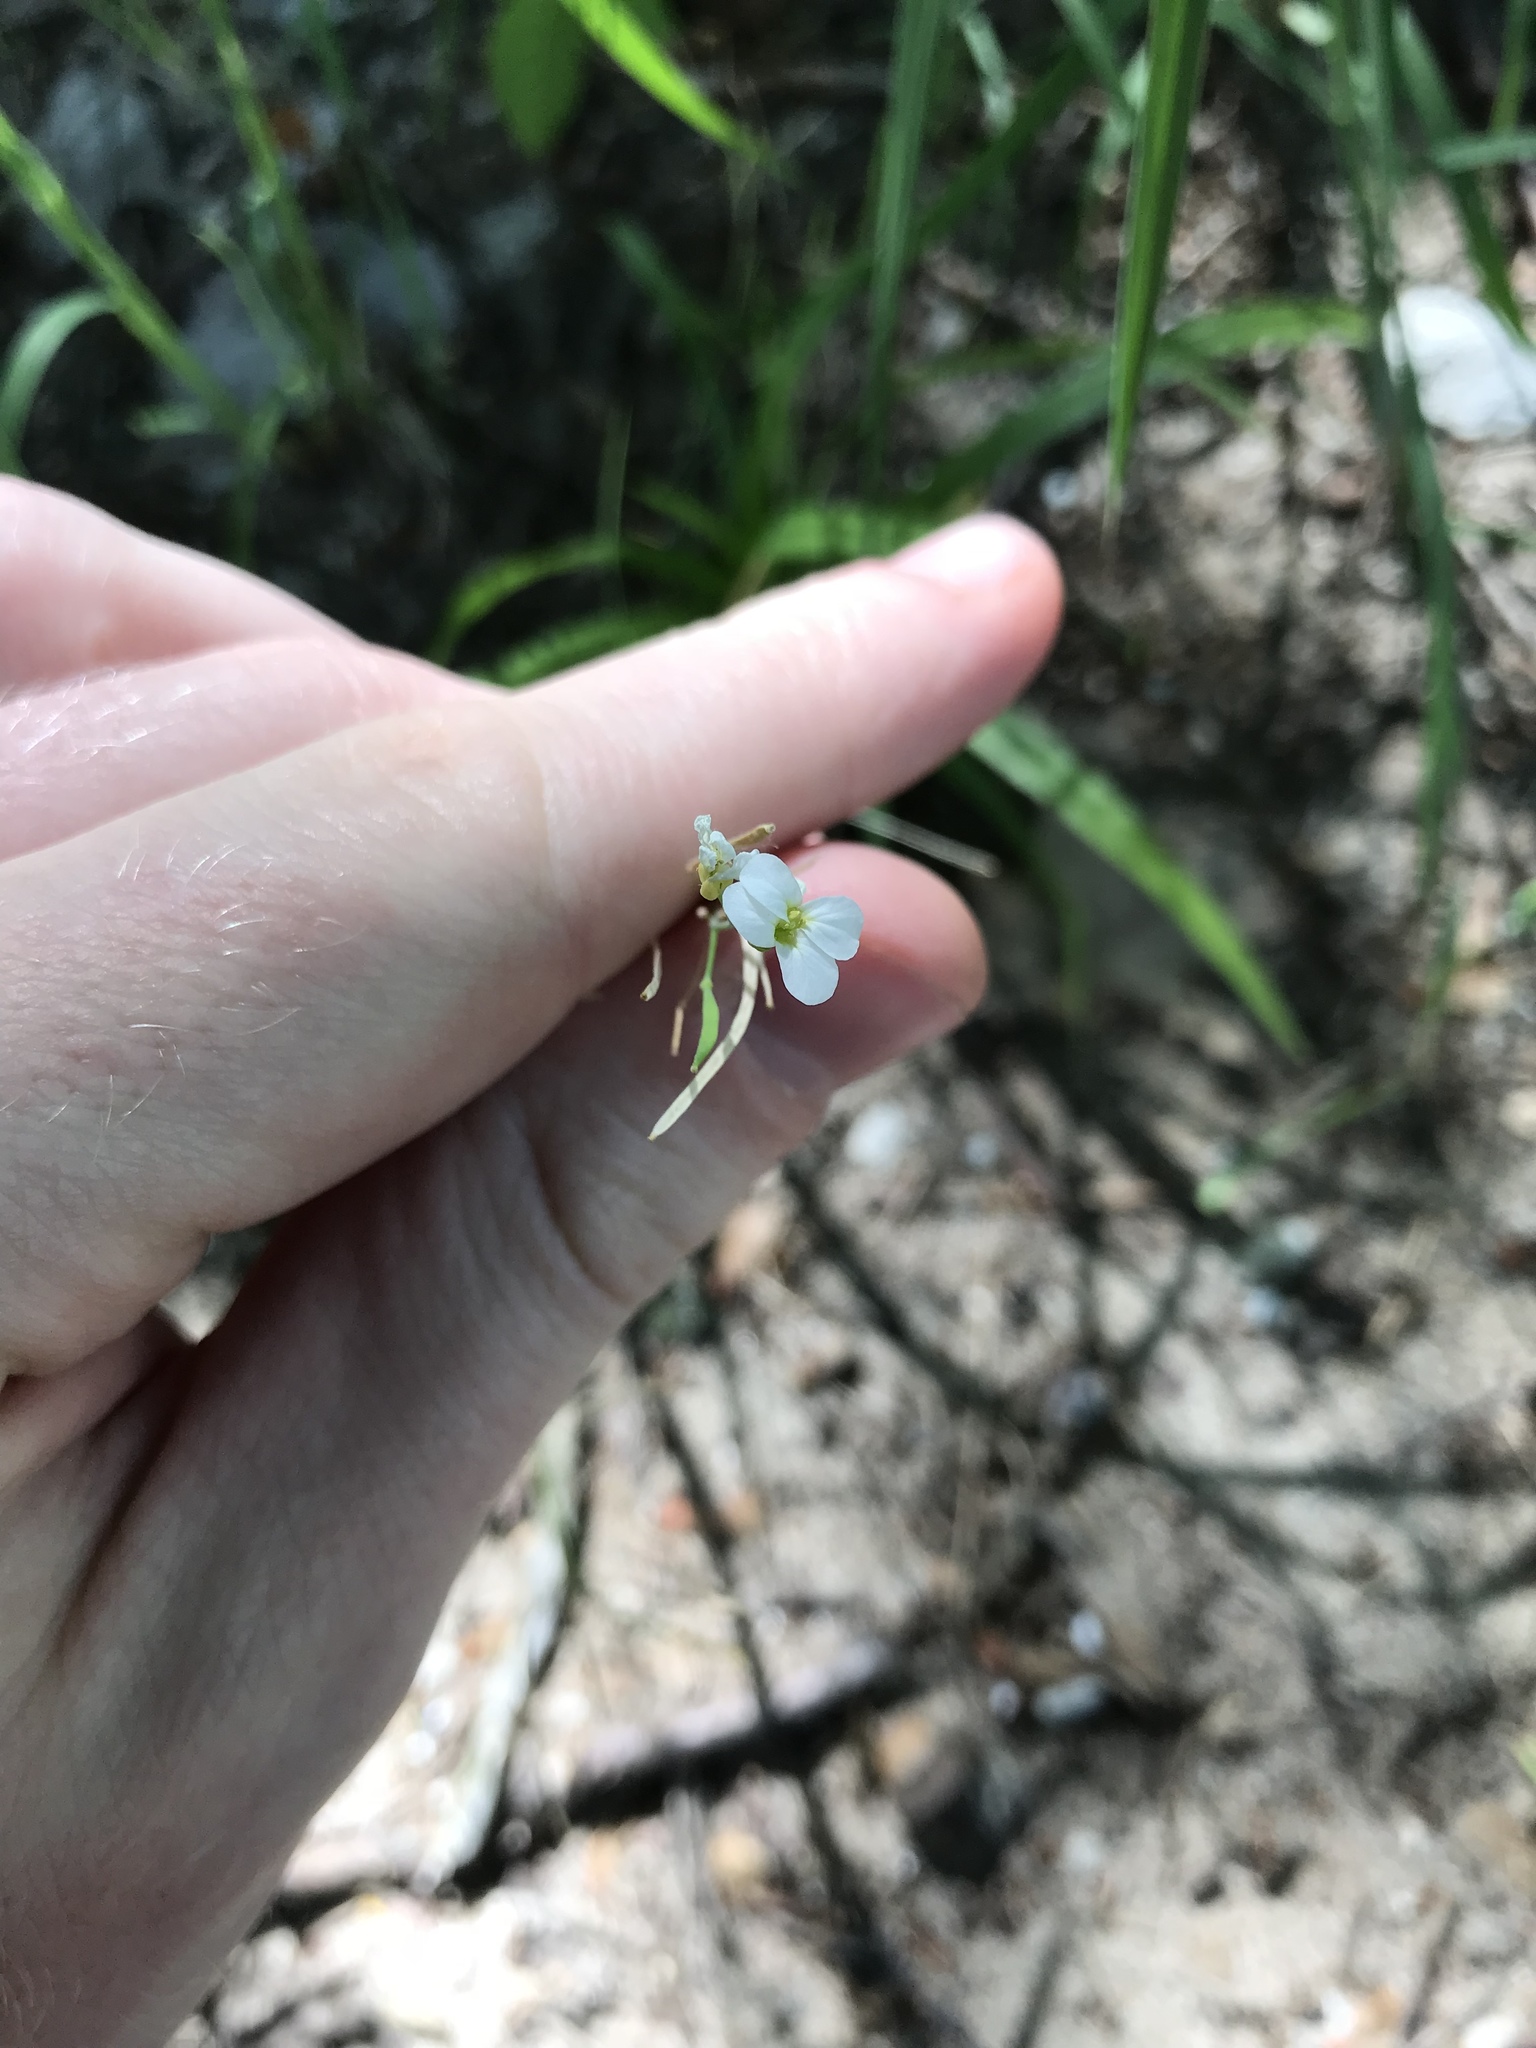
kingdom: Plantae
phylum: Tracheophyta
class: Magnoliopsida
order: Brassicales
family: Brassicaceae
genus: Arabidopsis
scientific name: Arabidopsis lyrata
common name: Lyrate rockcress
